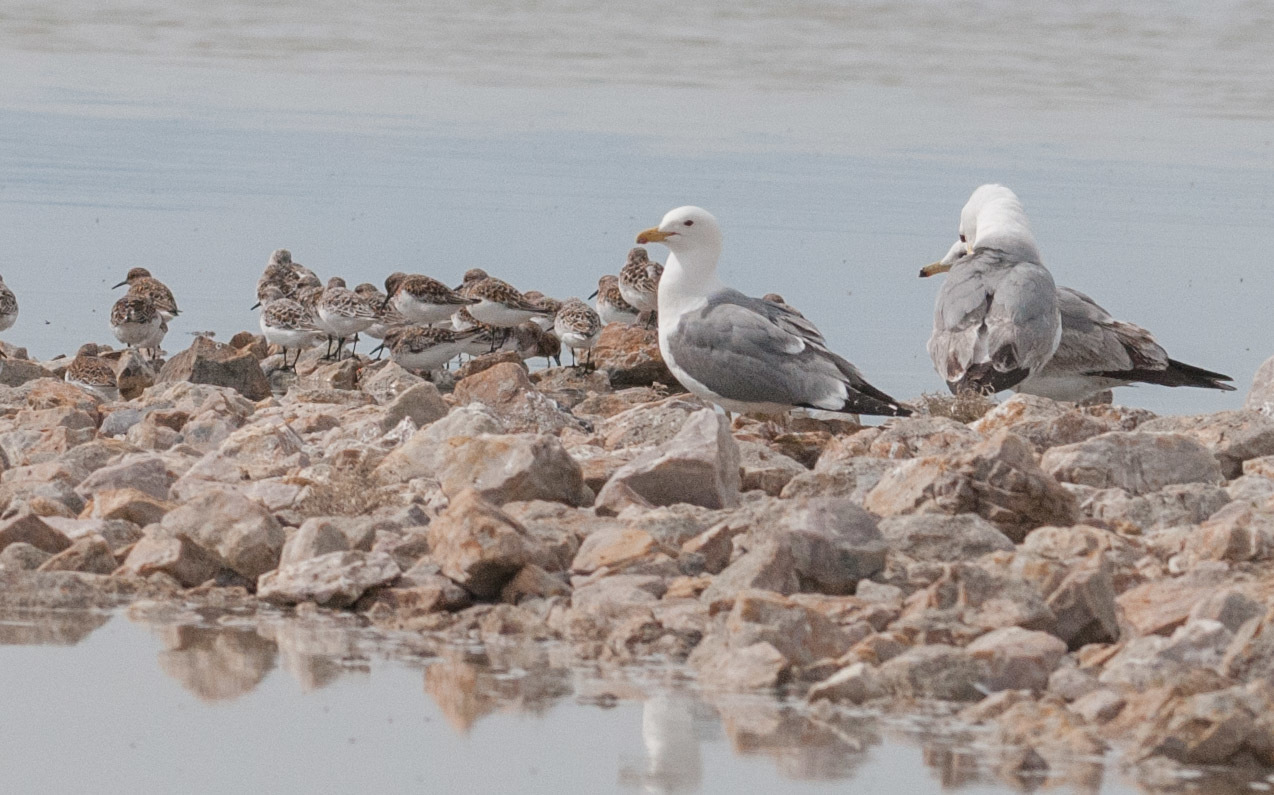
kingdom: Animalia
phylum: Chordata
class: Aves
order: Charadriiformes
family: Laridae
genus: Larus
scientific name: Larus californicus
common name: California gull
